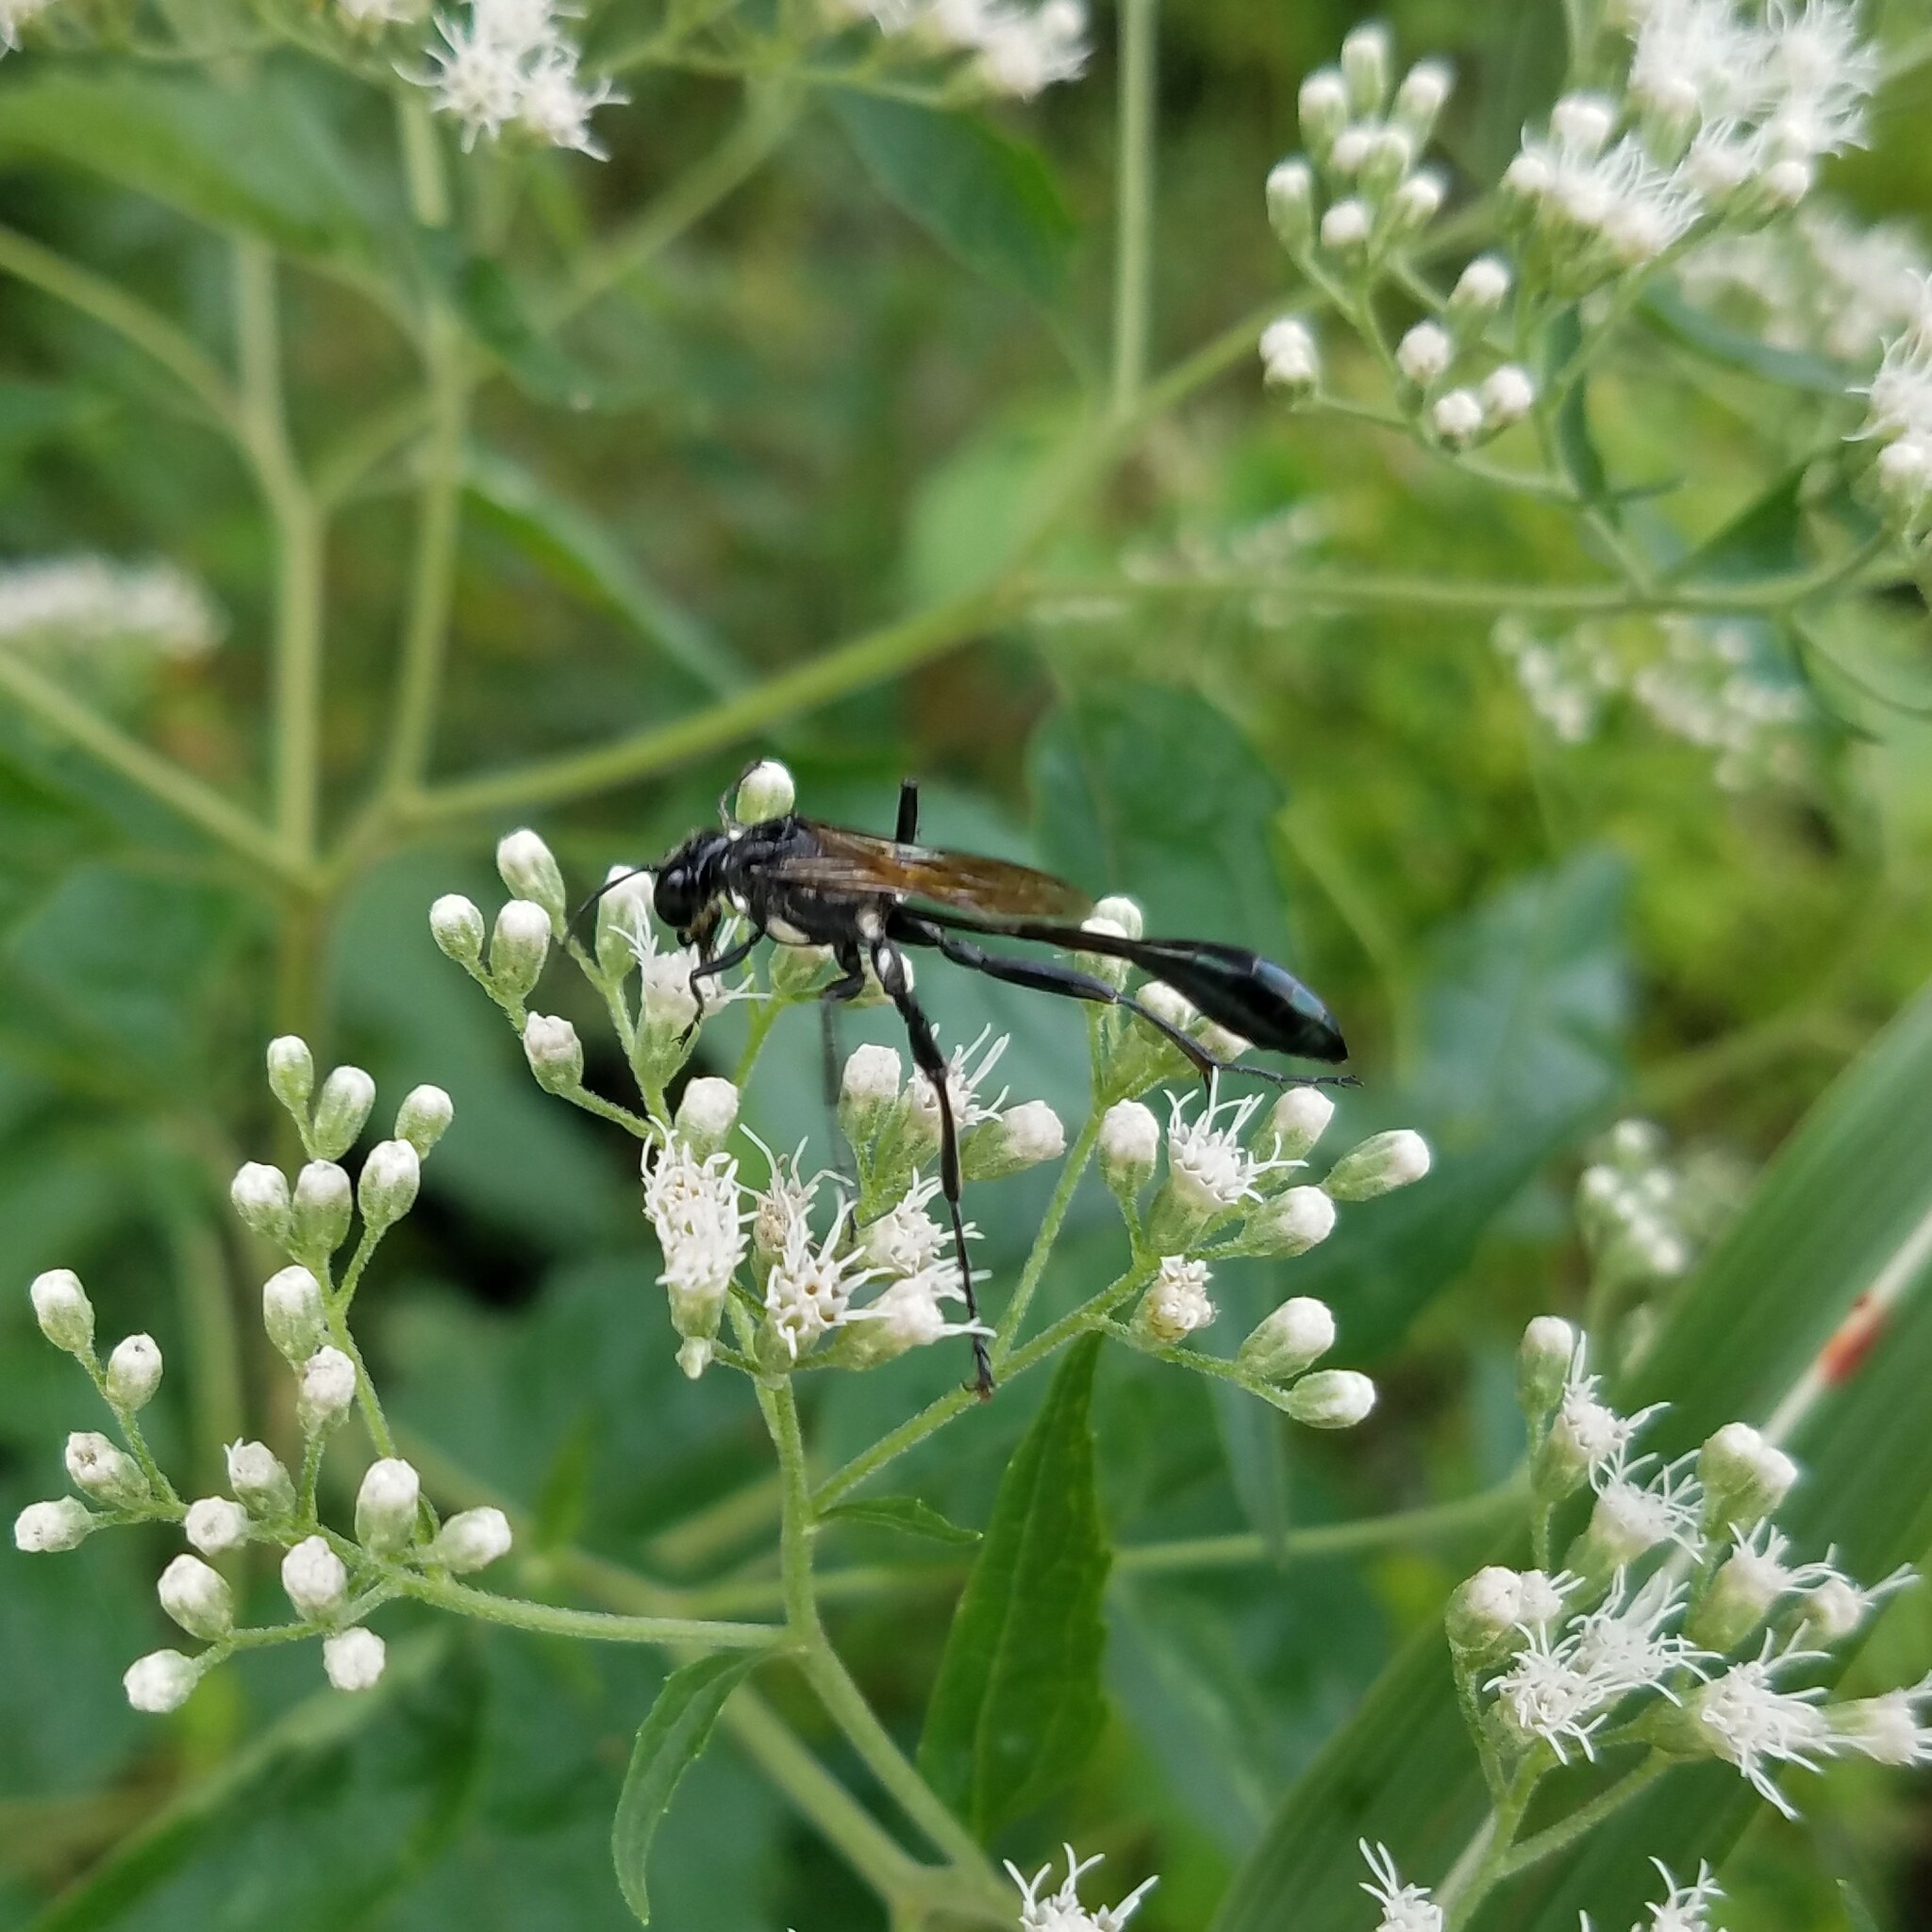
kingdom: Animalia
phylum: Arthropoda
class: Insecta
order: Hymenoptera
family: Sphecidae
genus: Eremnophila
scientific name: Eremnophila aureonotata
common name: Gold-marked thread-waisted wasp
